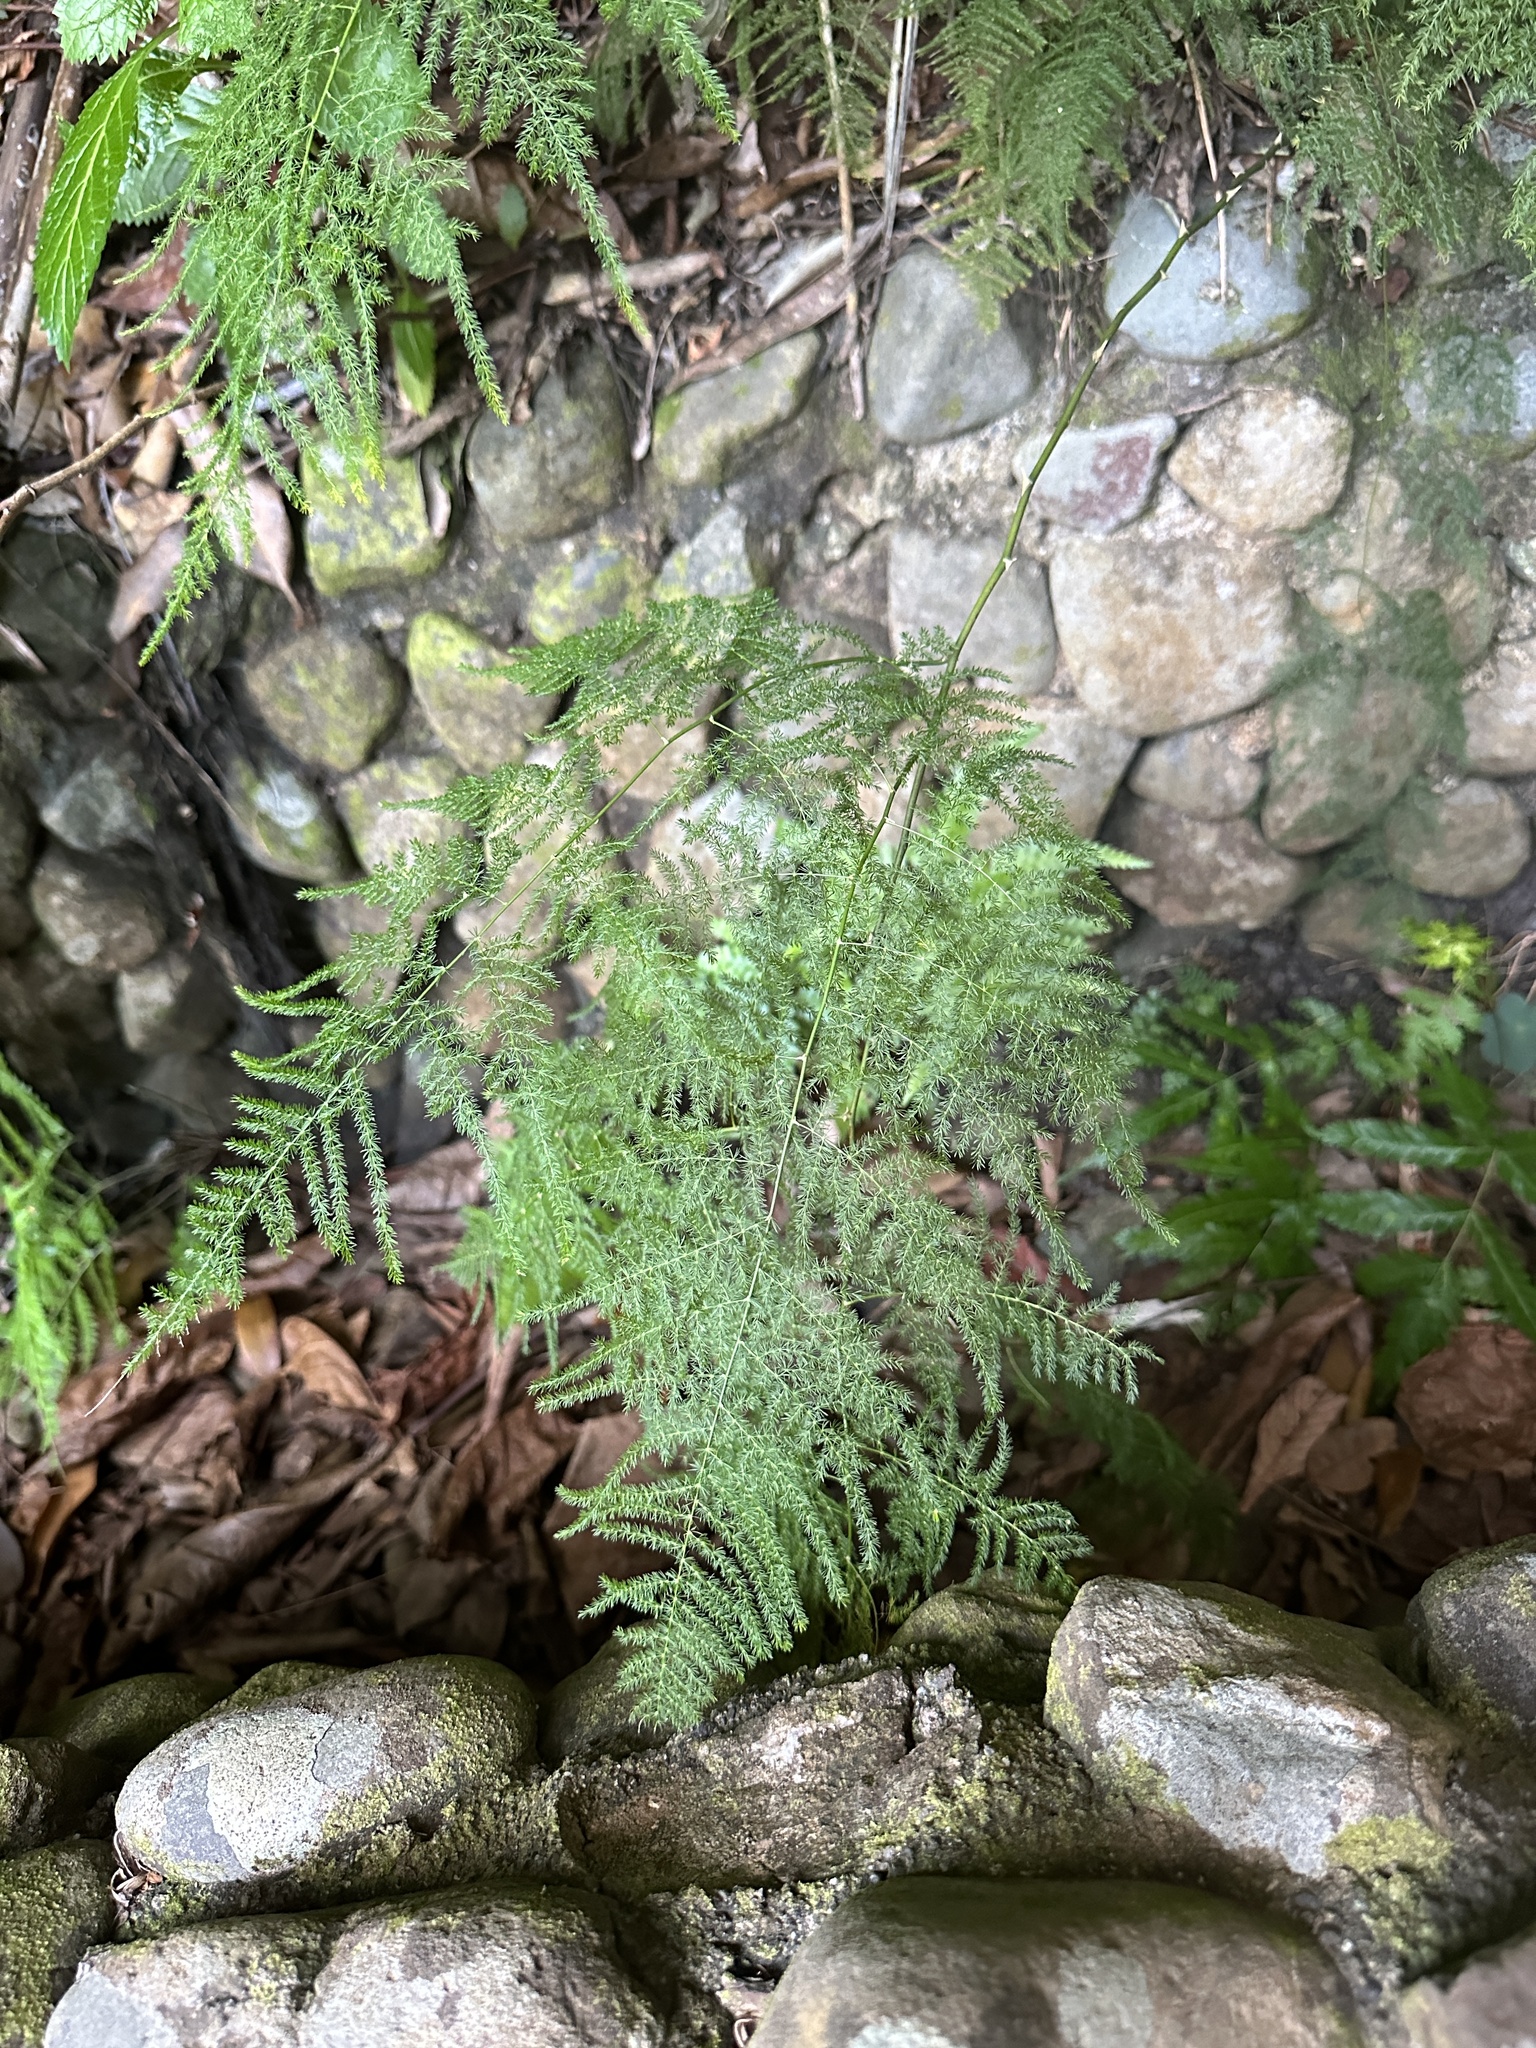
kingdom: Plantae
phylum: Tracheophyta
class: Liliopsida
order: Asparagales
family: Asparagaceae
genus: Asparagus
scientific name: Asparagus setaceus
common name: Common asparagus fern
